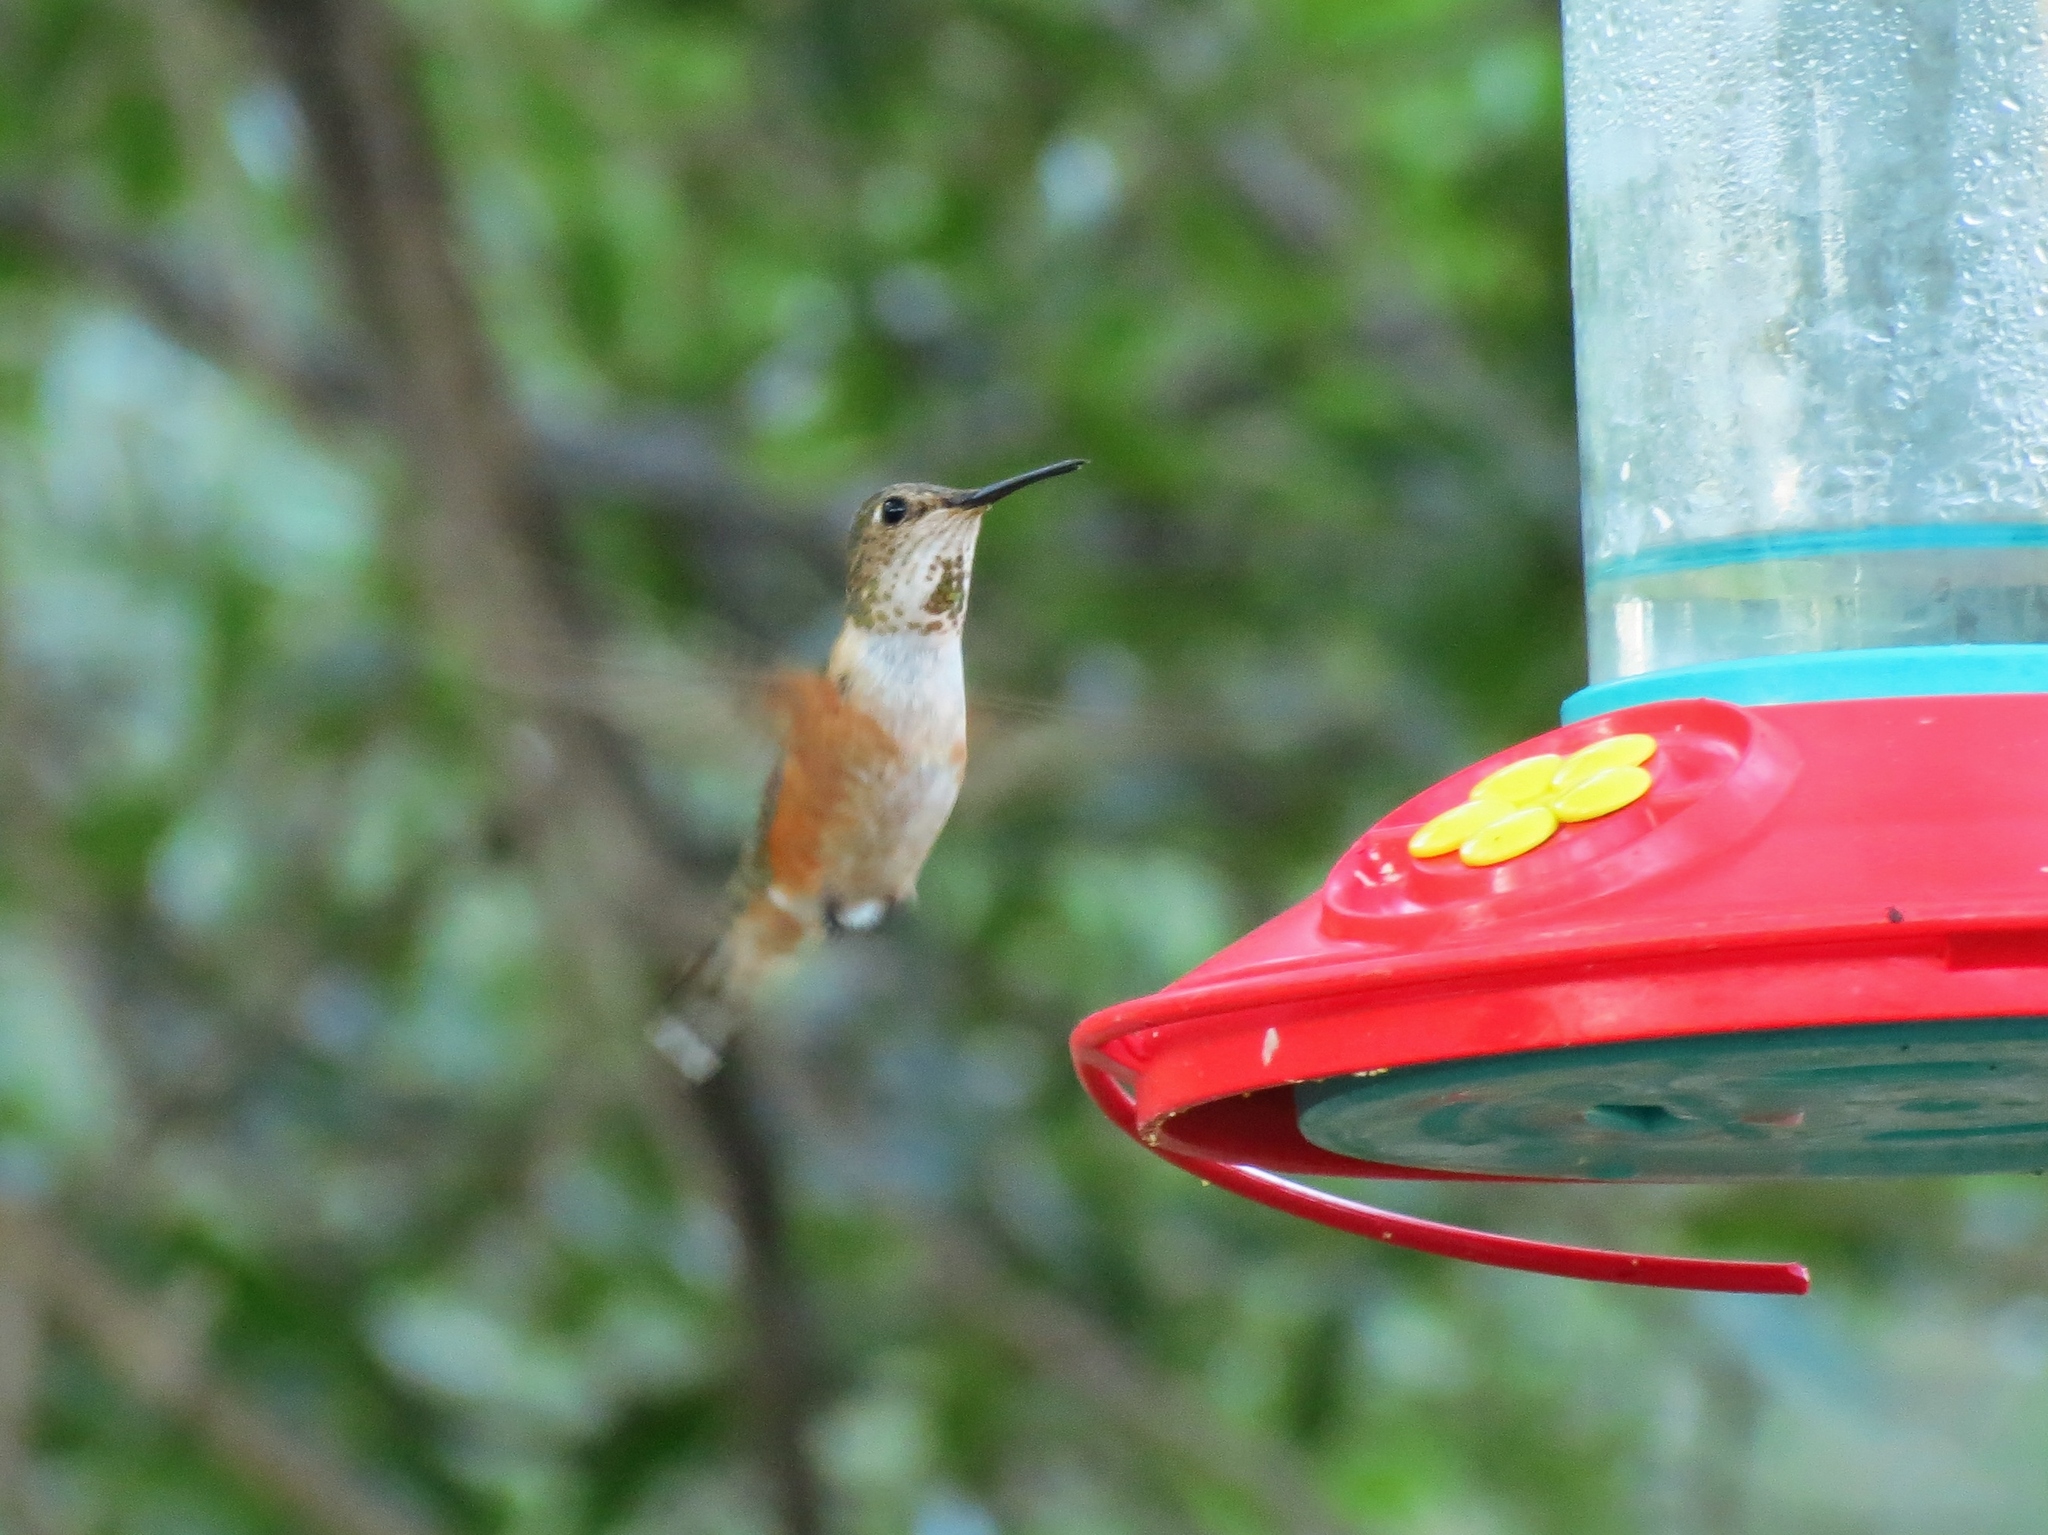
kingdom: Animalia
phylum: Chordata
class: Aves
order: Apodiformes
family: Trochilidae
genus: Selasphorus
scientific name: Selasphorus rufus
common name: Rufous hummingbird
